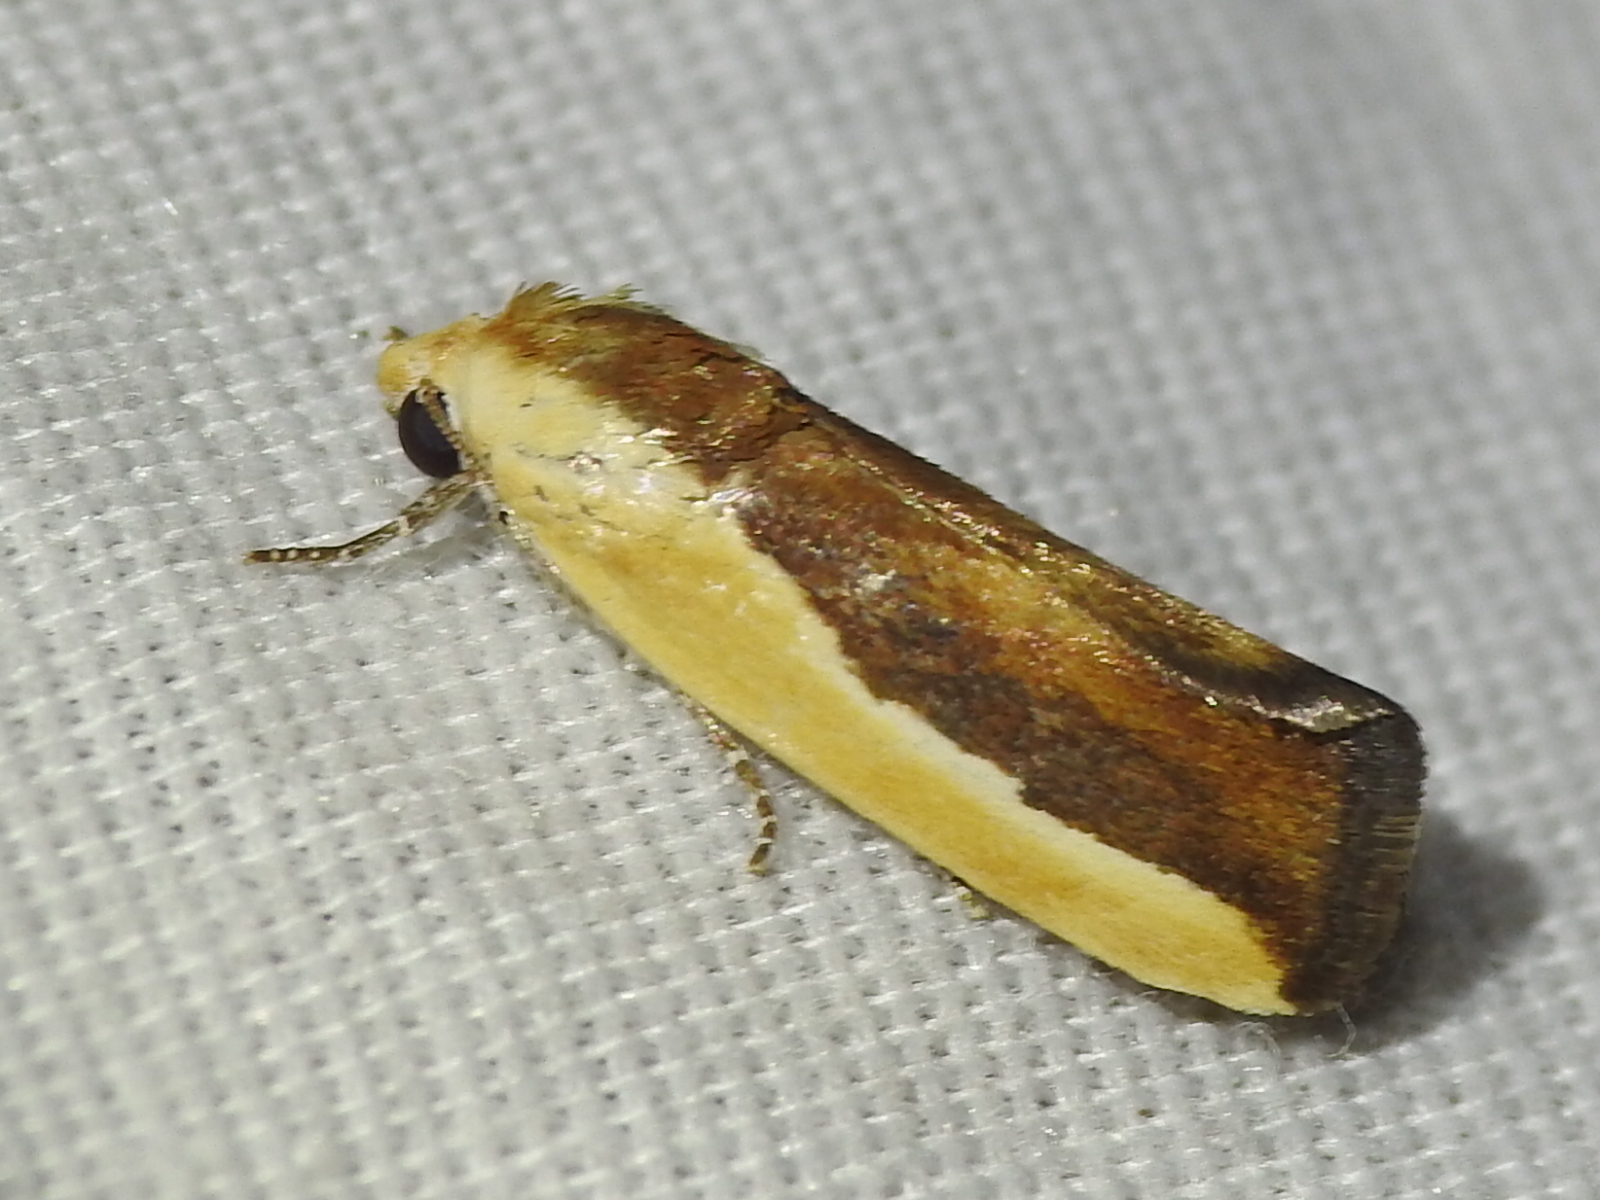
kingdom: Animalia
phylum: Arthropoda
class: Insecta
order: Lepidoptera
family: Noctuidae
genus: Acontia
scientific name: Acontia exigua
